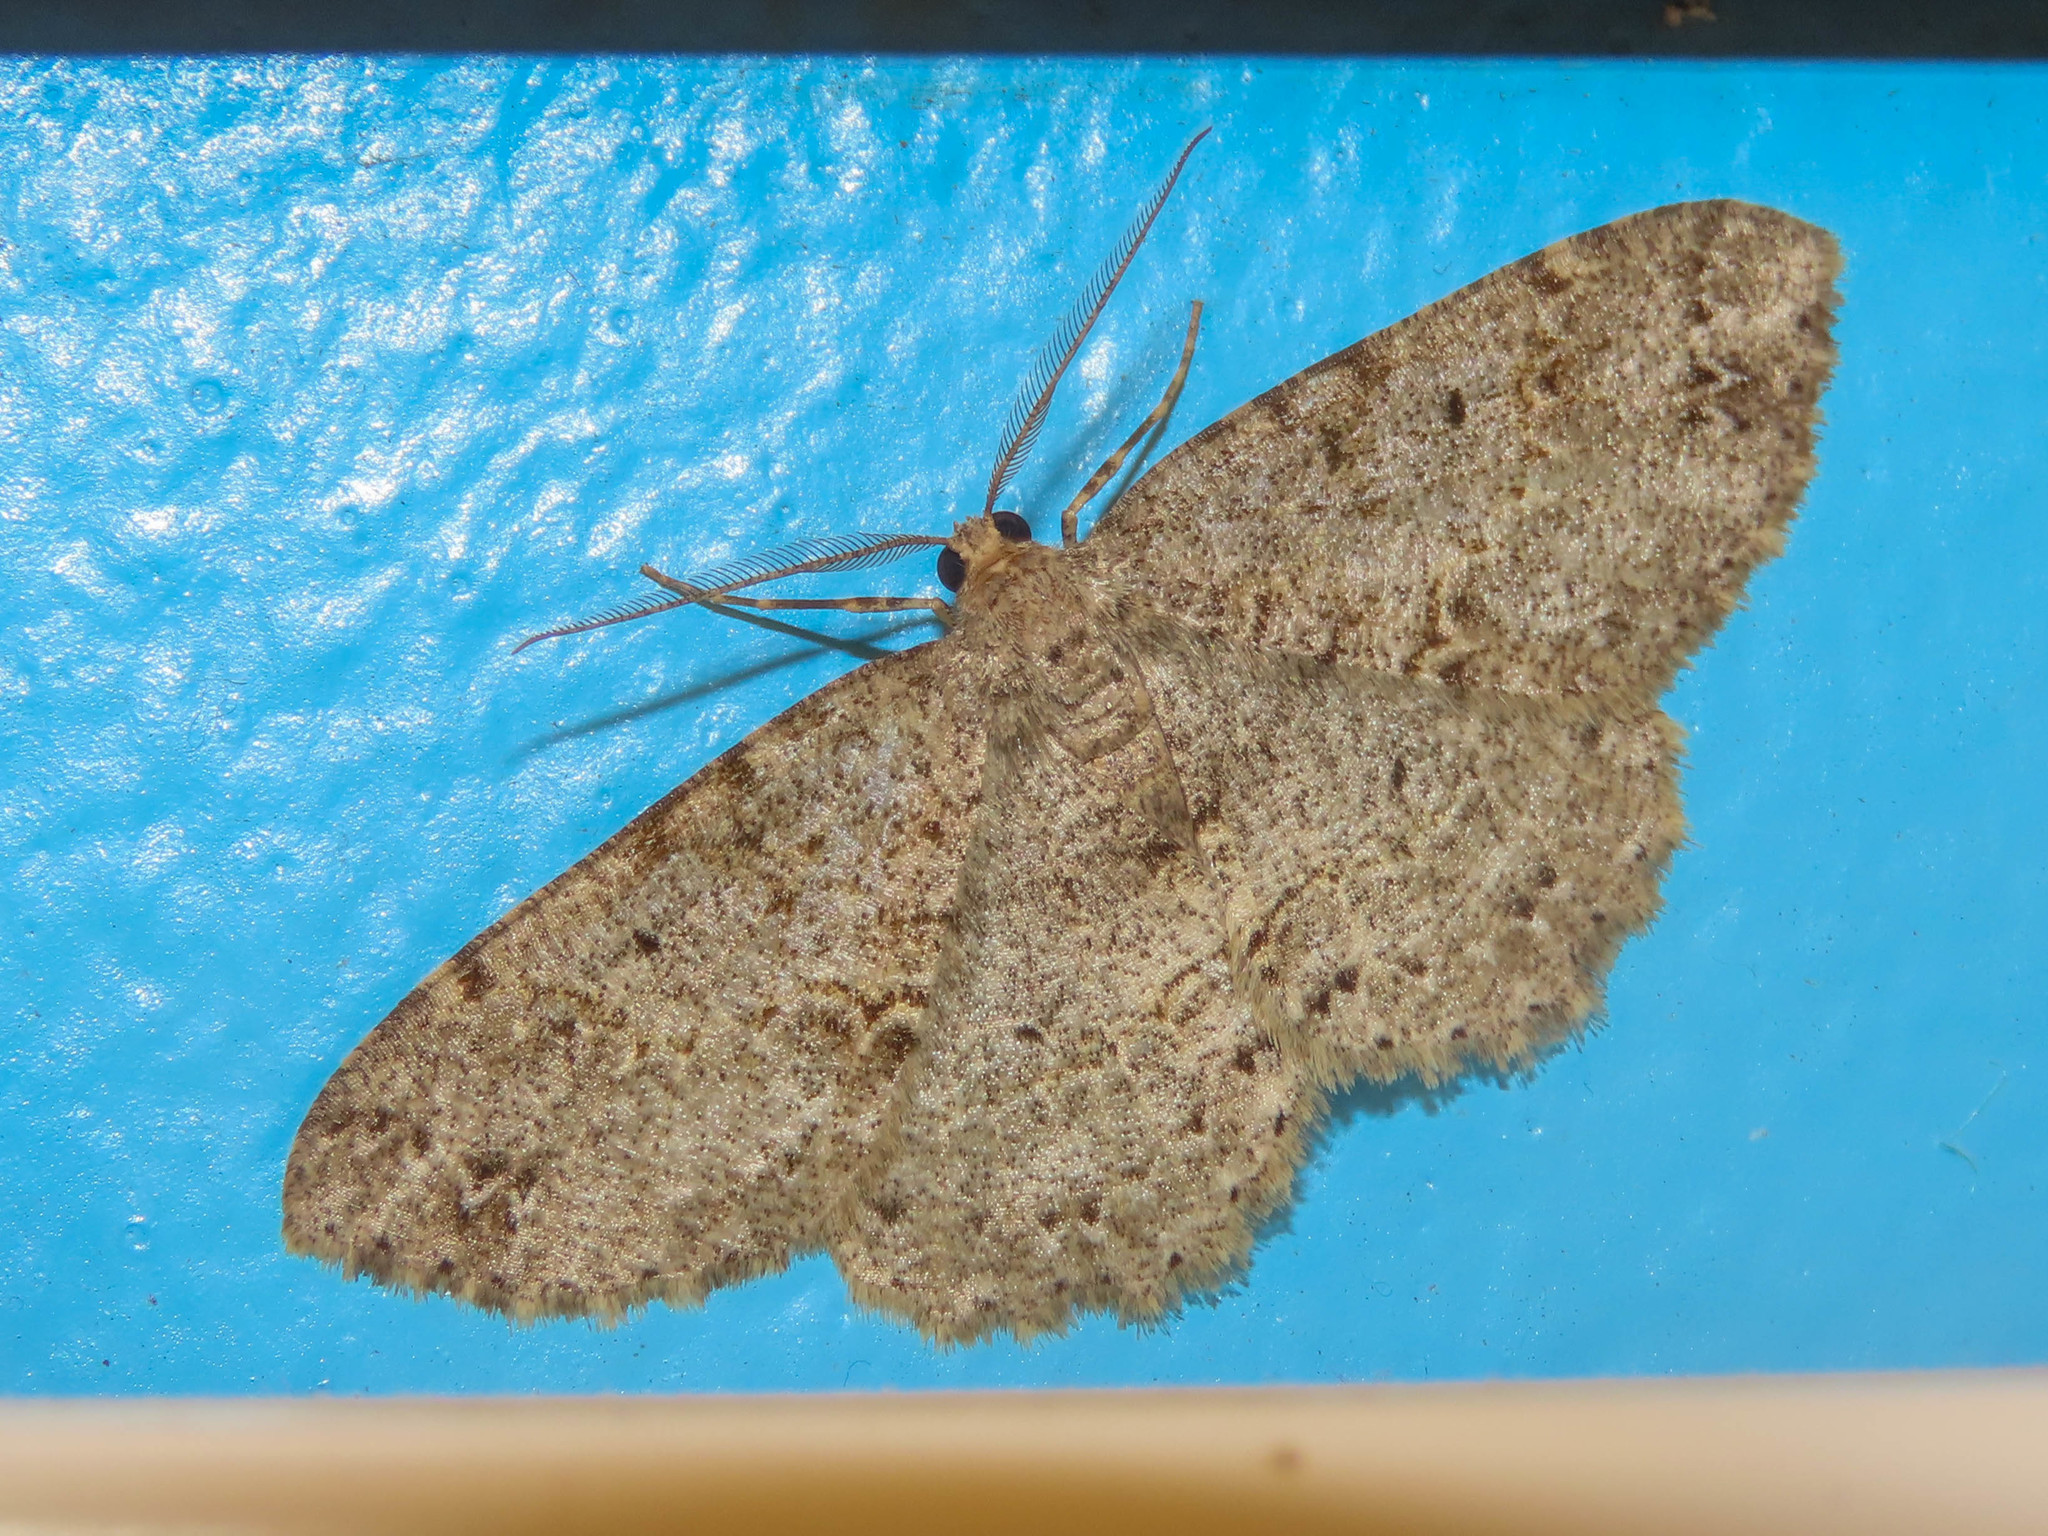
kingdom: Animalia
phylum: Arthropoda
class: Insecta
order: Lepidoptera
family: Geometridae
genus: Melanolophia
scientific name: Melanolophia canadaria
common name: Canadian melanolophia
